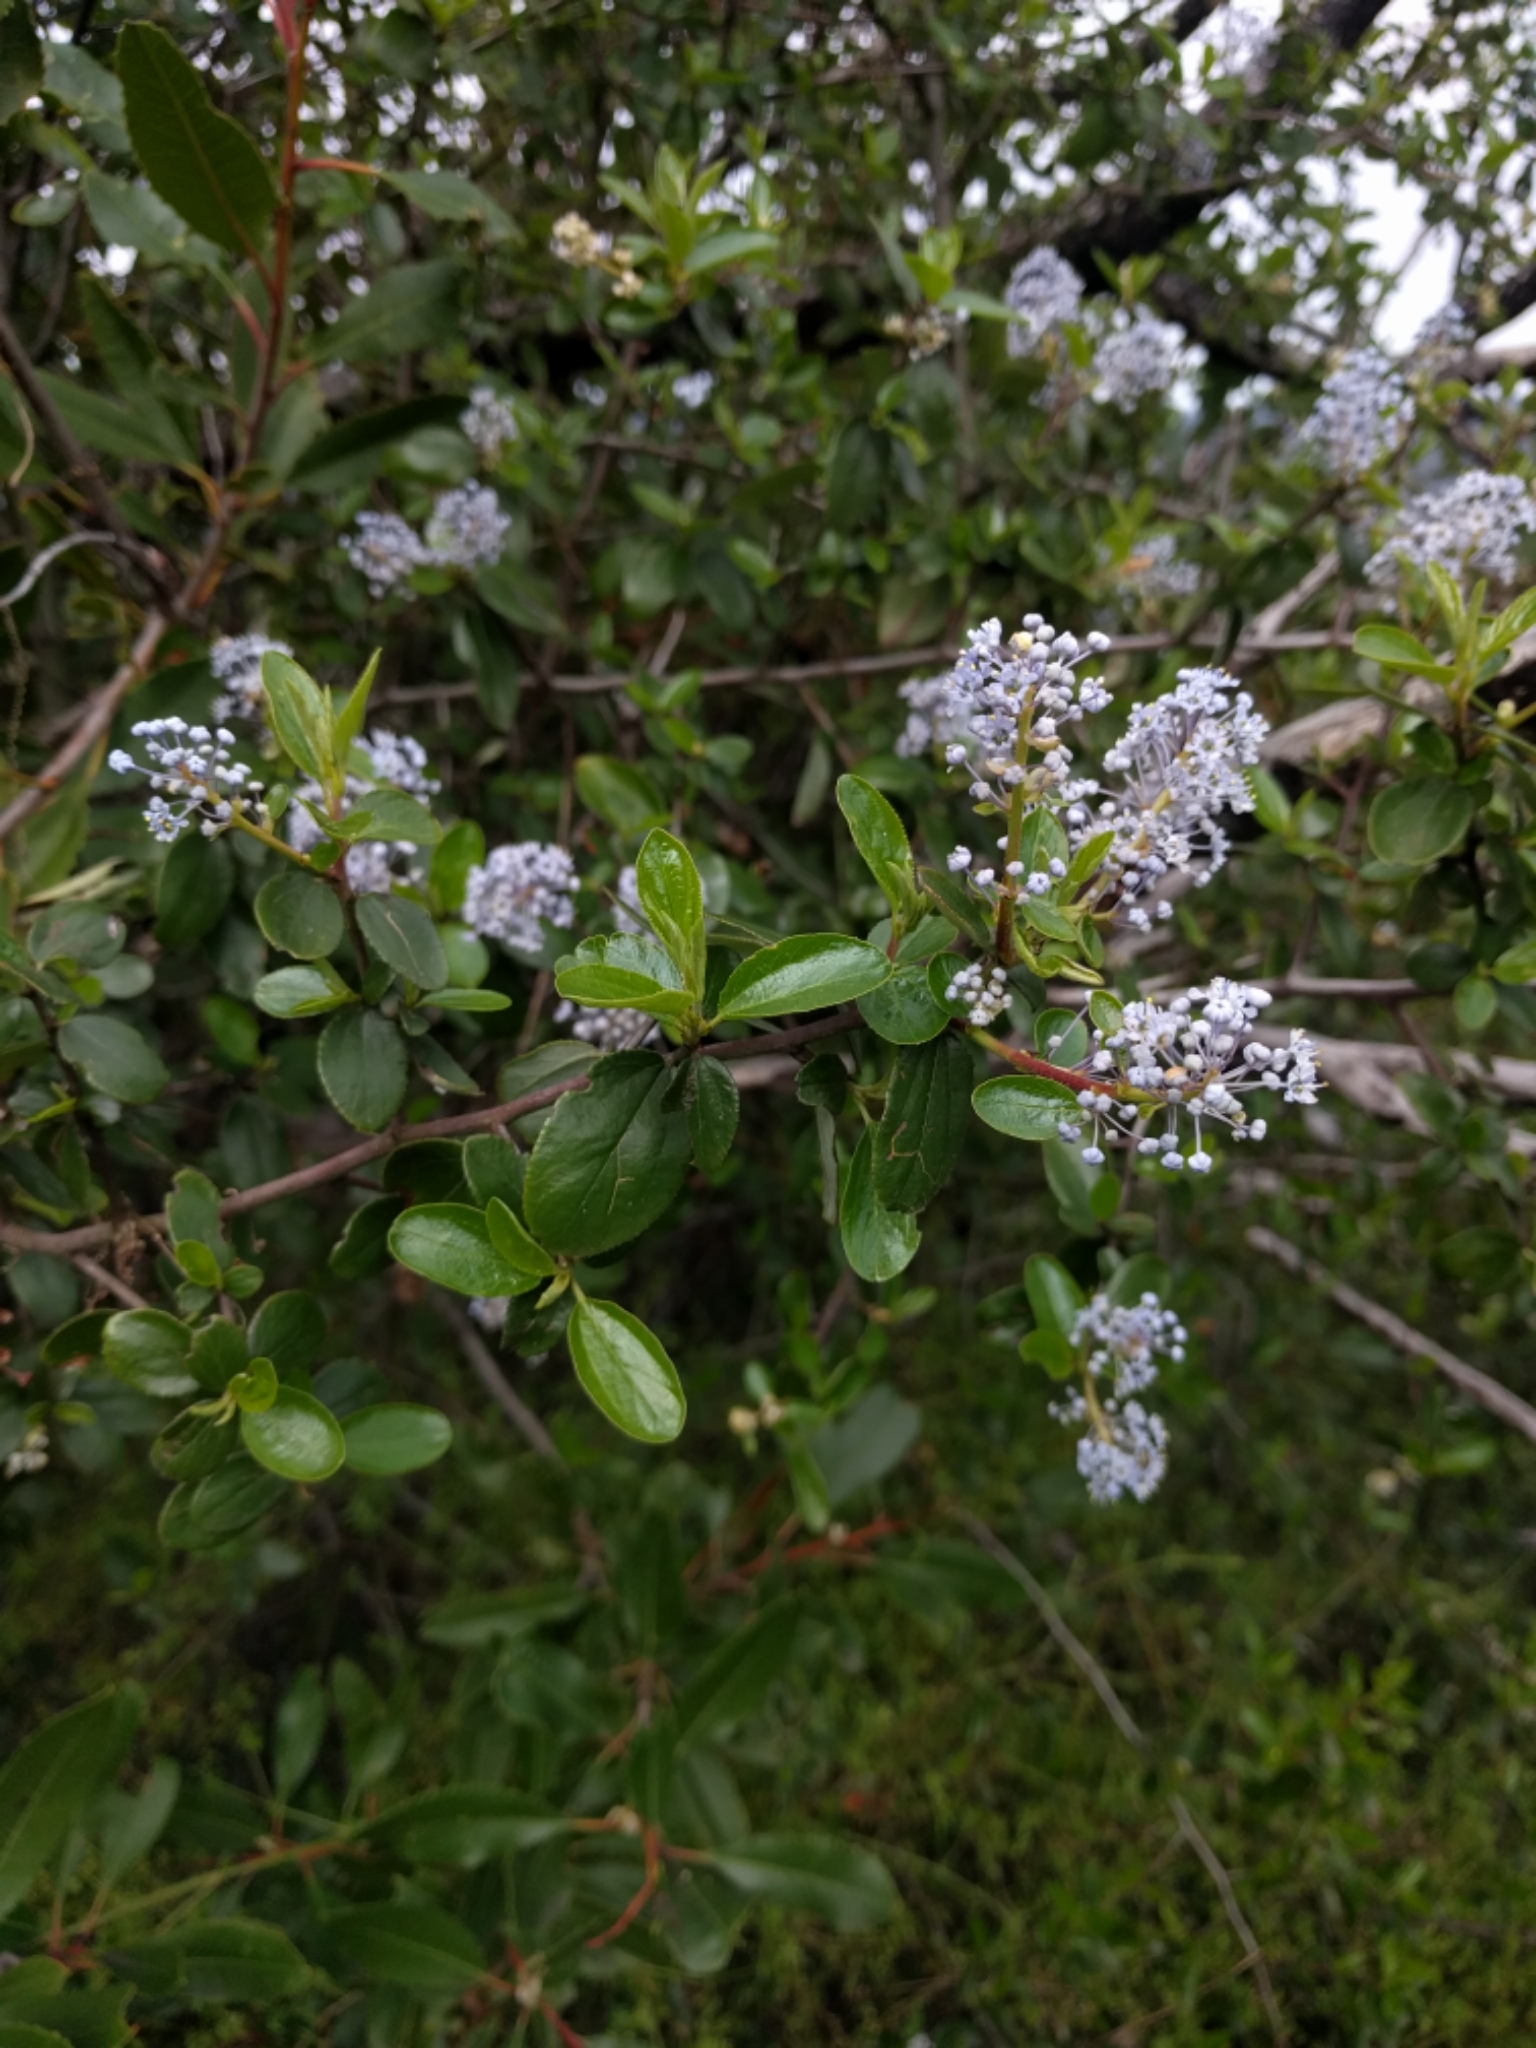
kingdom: Plantae
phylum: Tracheophyta
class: Magnoliopsida
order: Rosales
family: Rhamnaceae
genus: Ceanothus
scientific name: Ceanothus sorediatus
